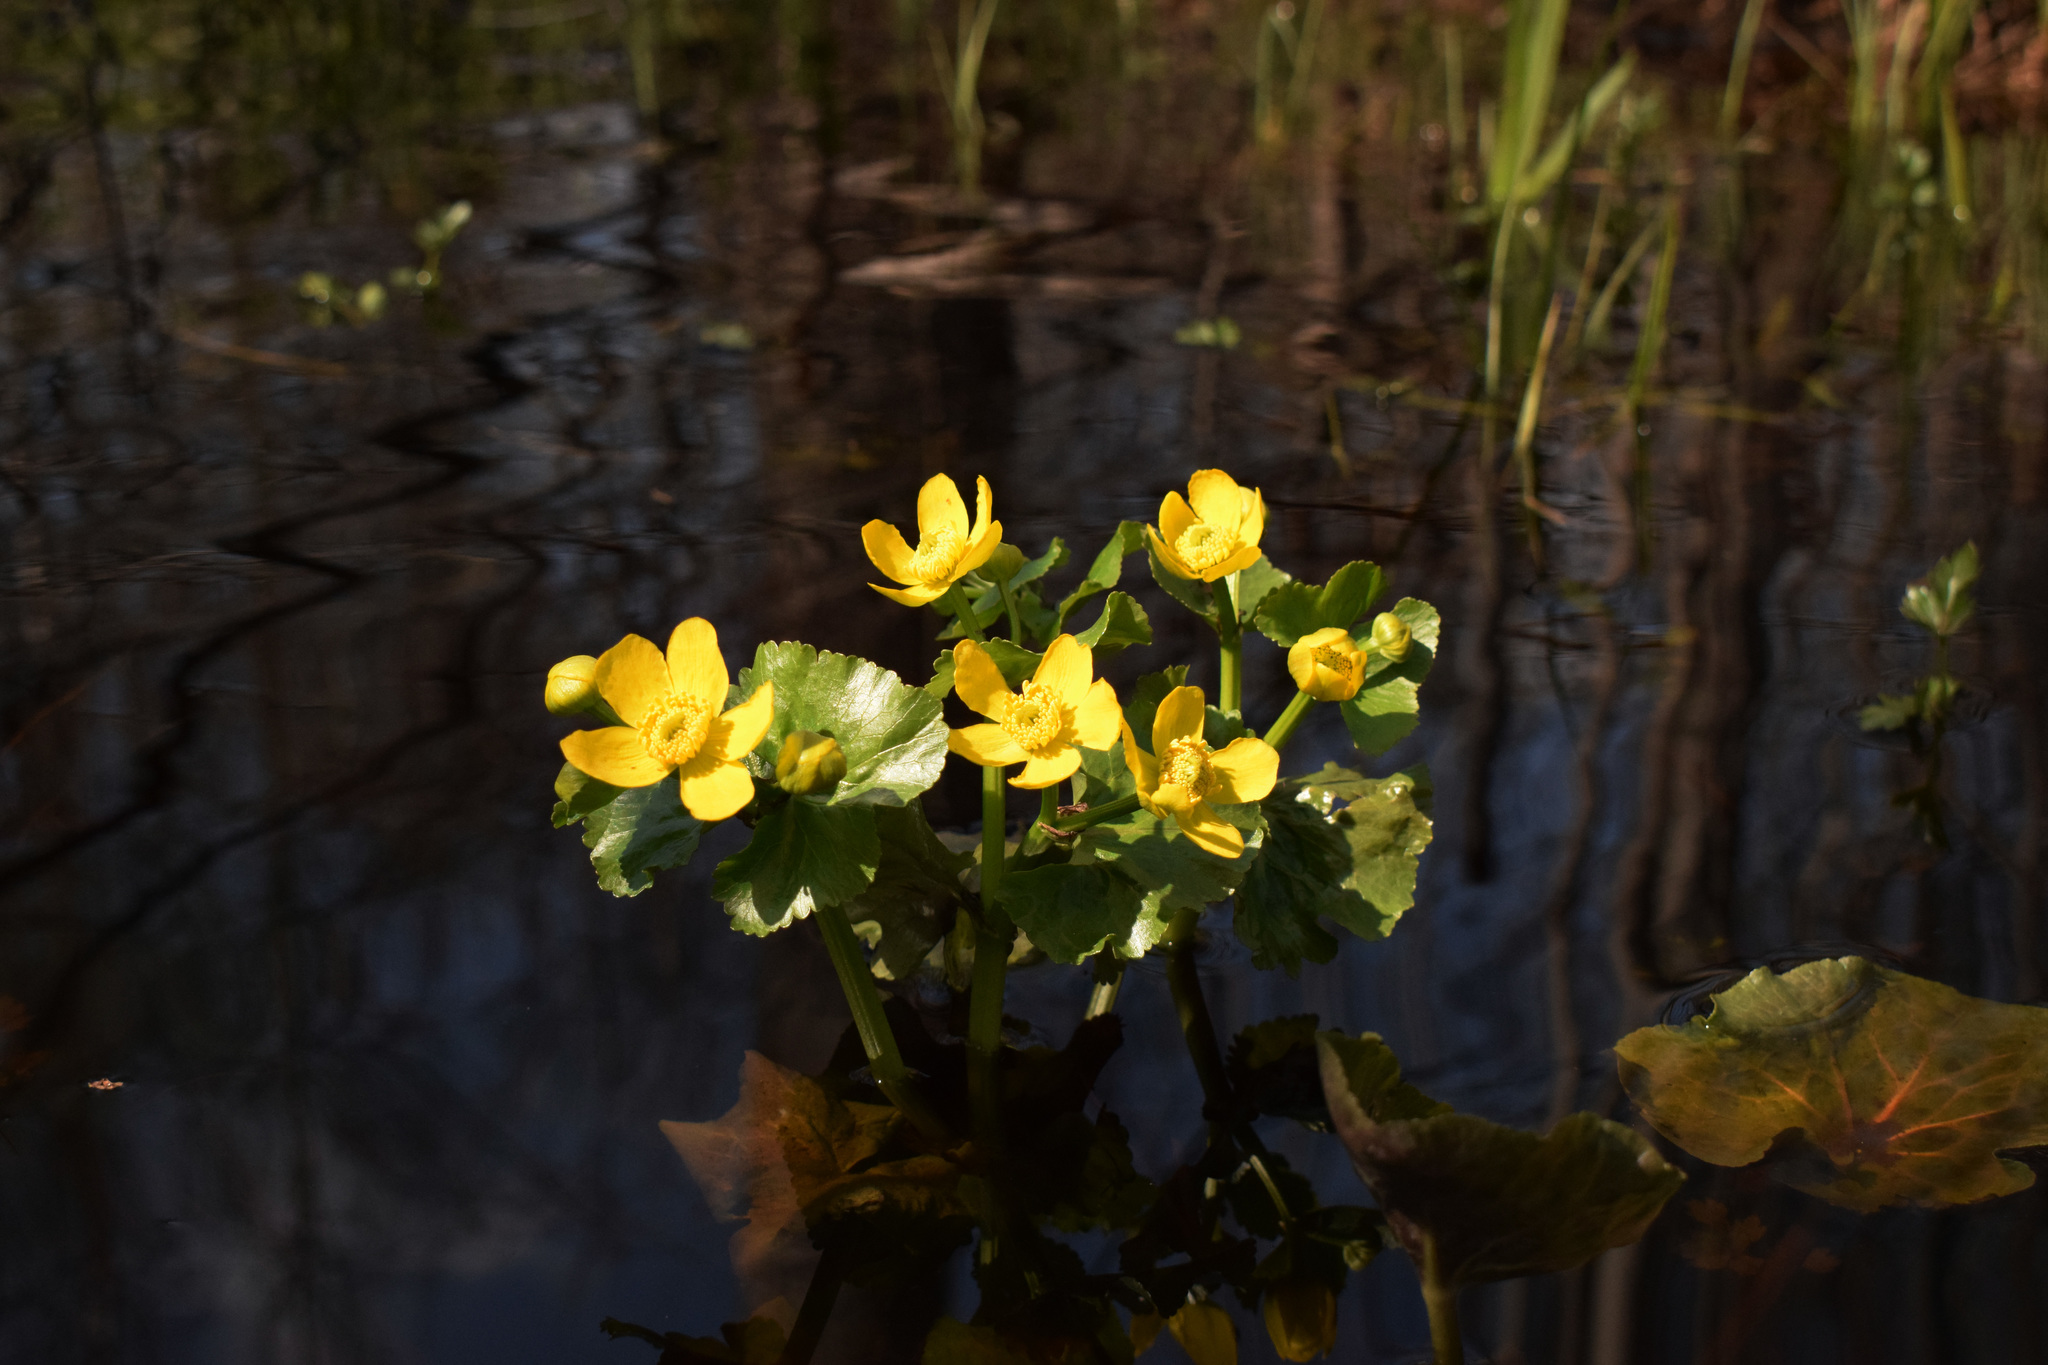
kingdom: Plantae
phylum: Tracheophyta
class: Magnoliopsida
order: Ranunculales
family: Ranunculaceae
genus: Caltha
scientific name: Caltha palustris
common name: Marsh marigold
